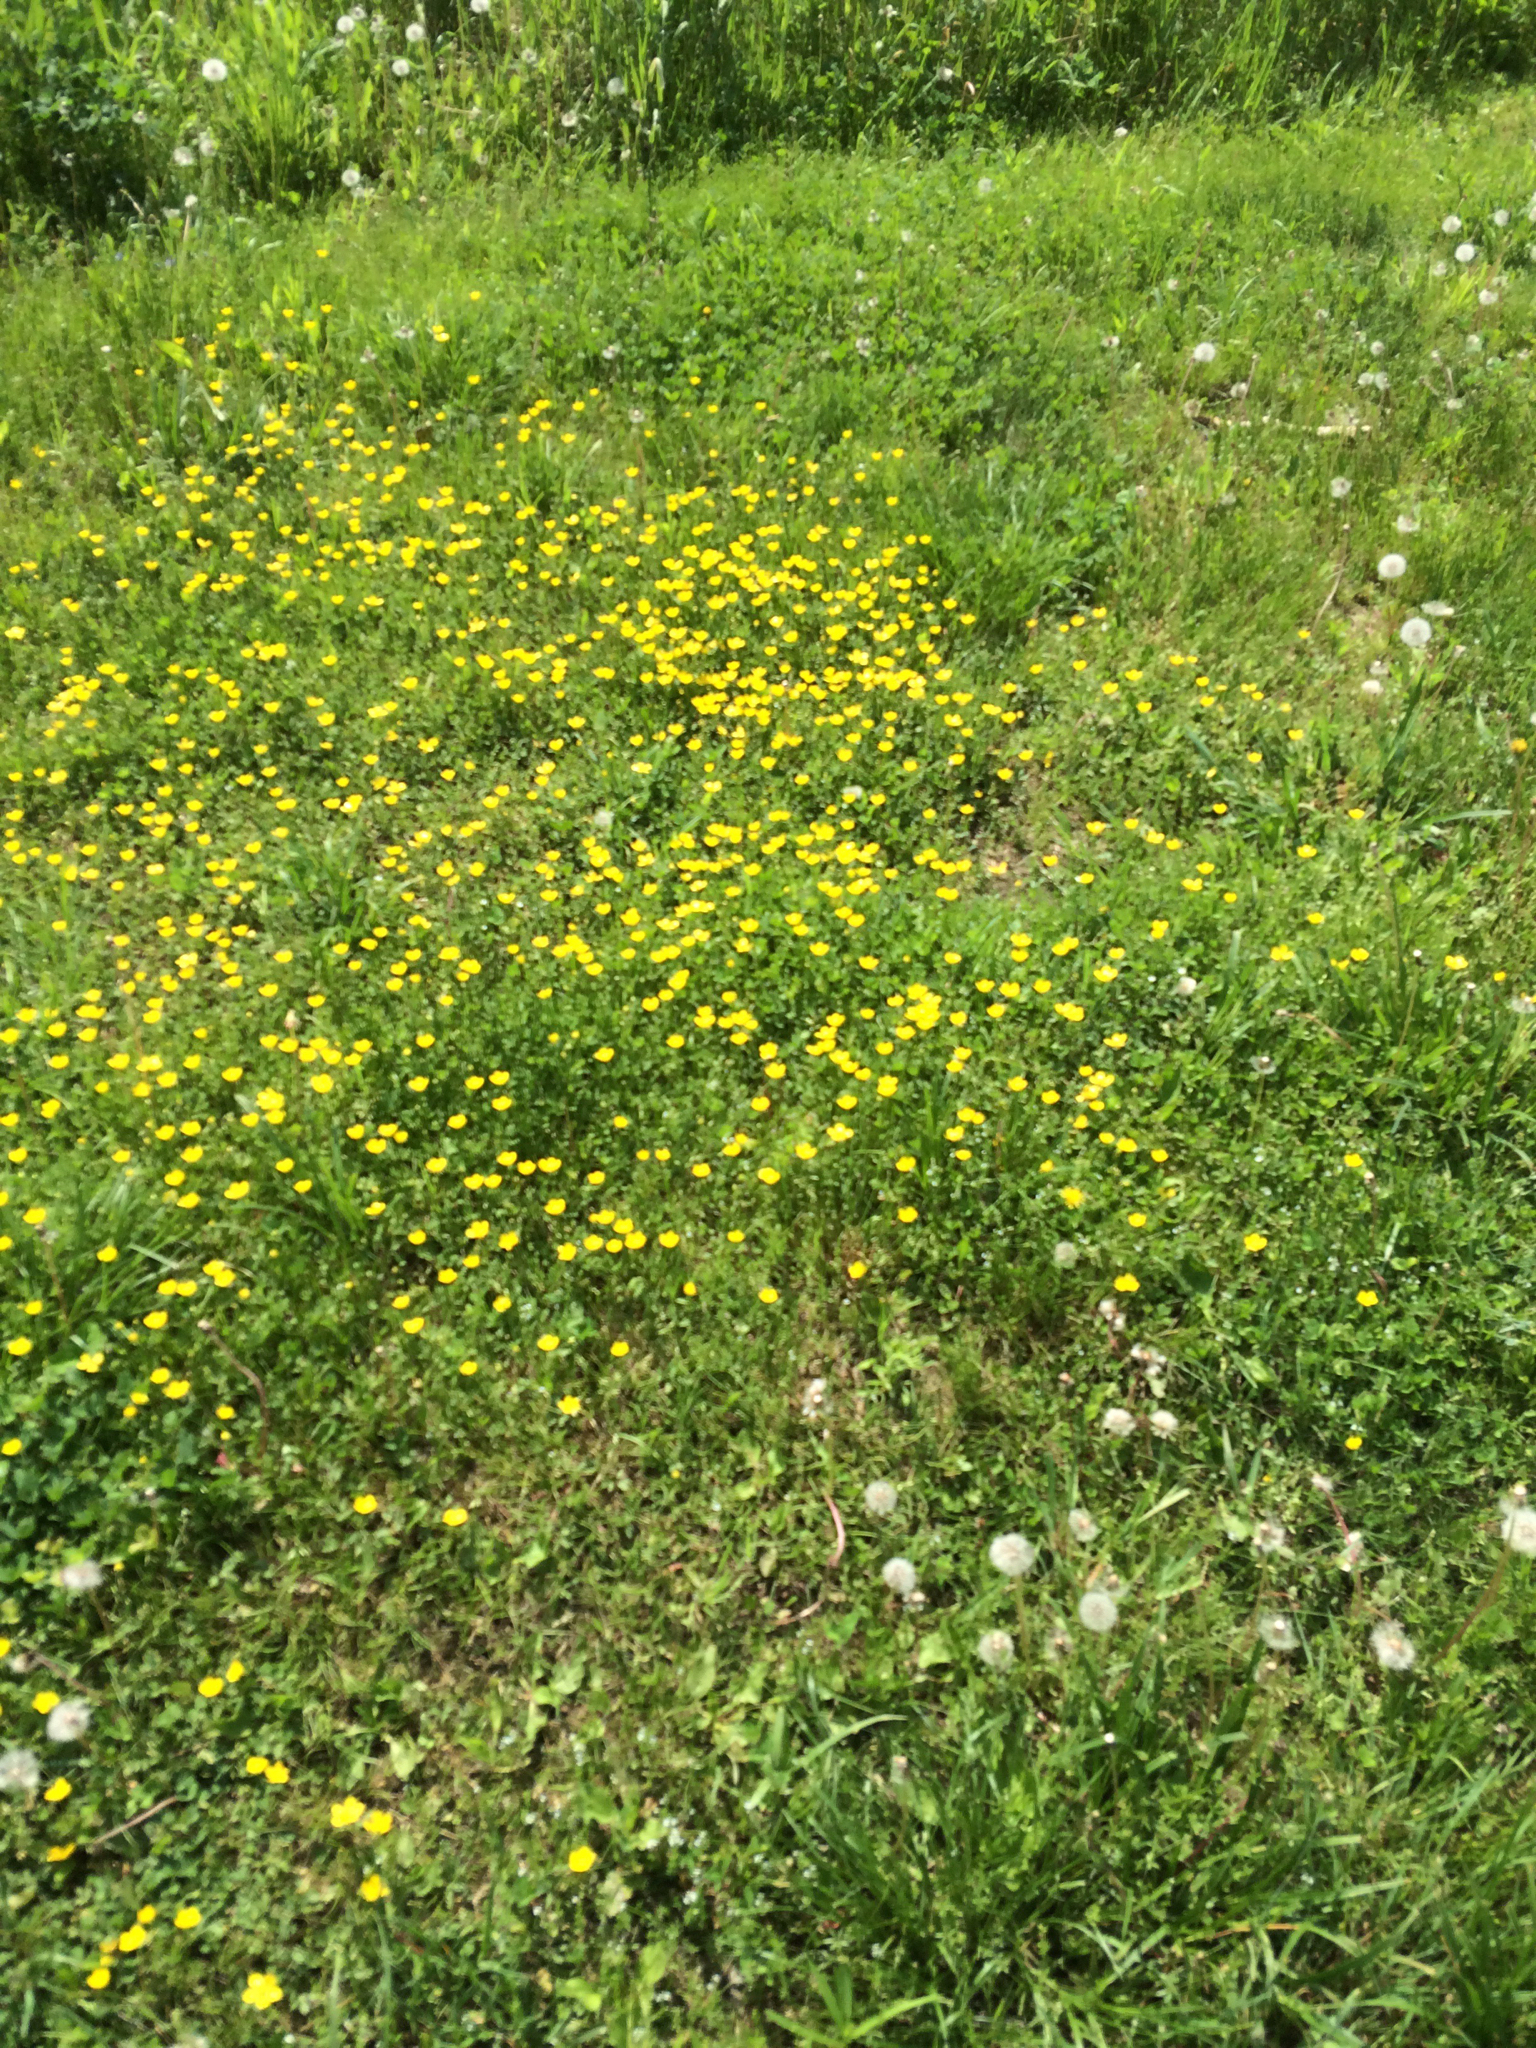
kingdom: Plantae
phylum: Tracheophyta
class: Magnoliopsida
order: Ranunculales
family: Ranunculaceae
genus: Ranunculus
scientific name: Ranunculus acris
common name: Meadow buttercup
